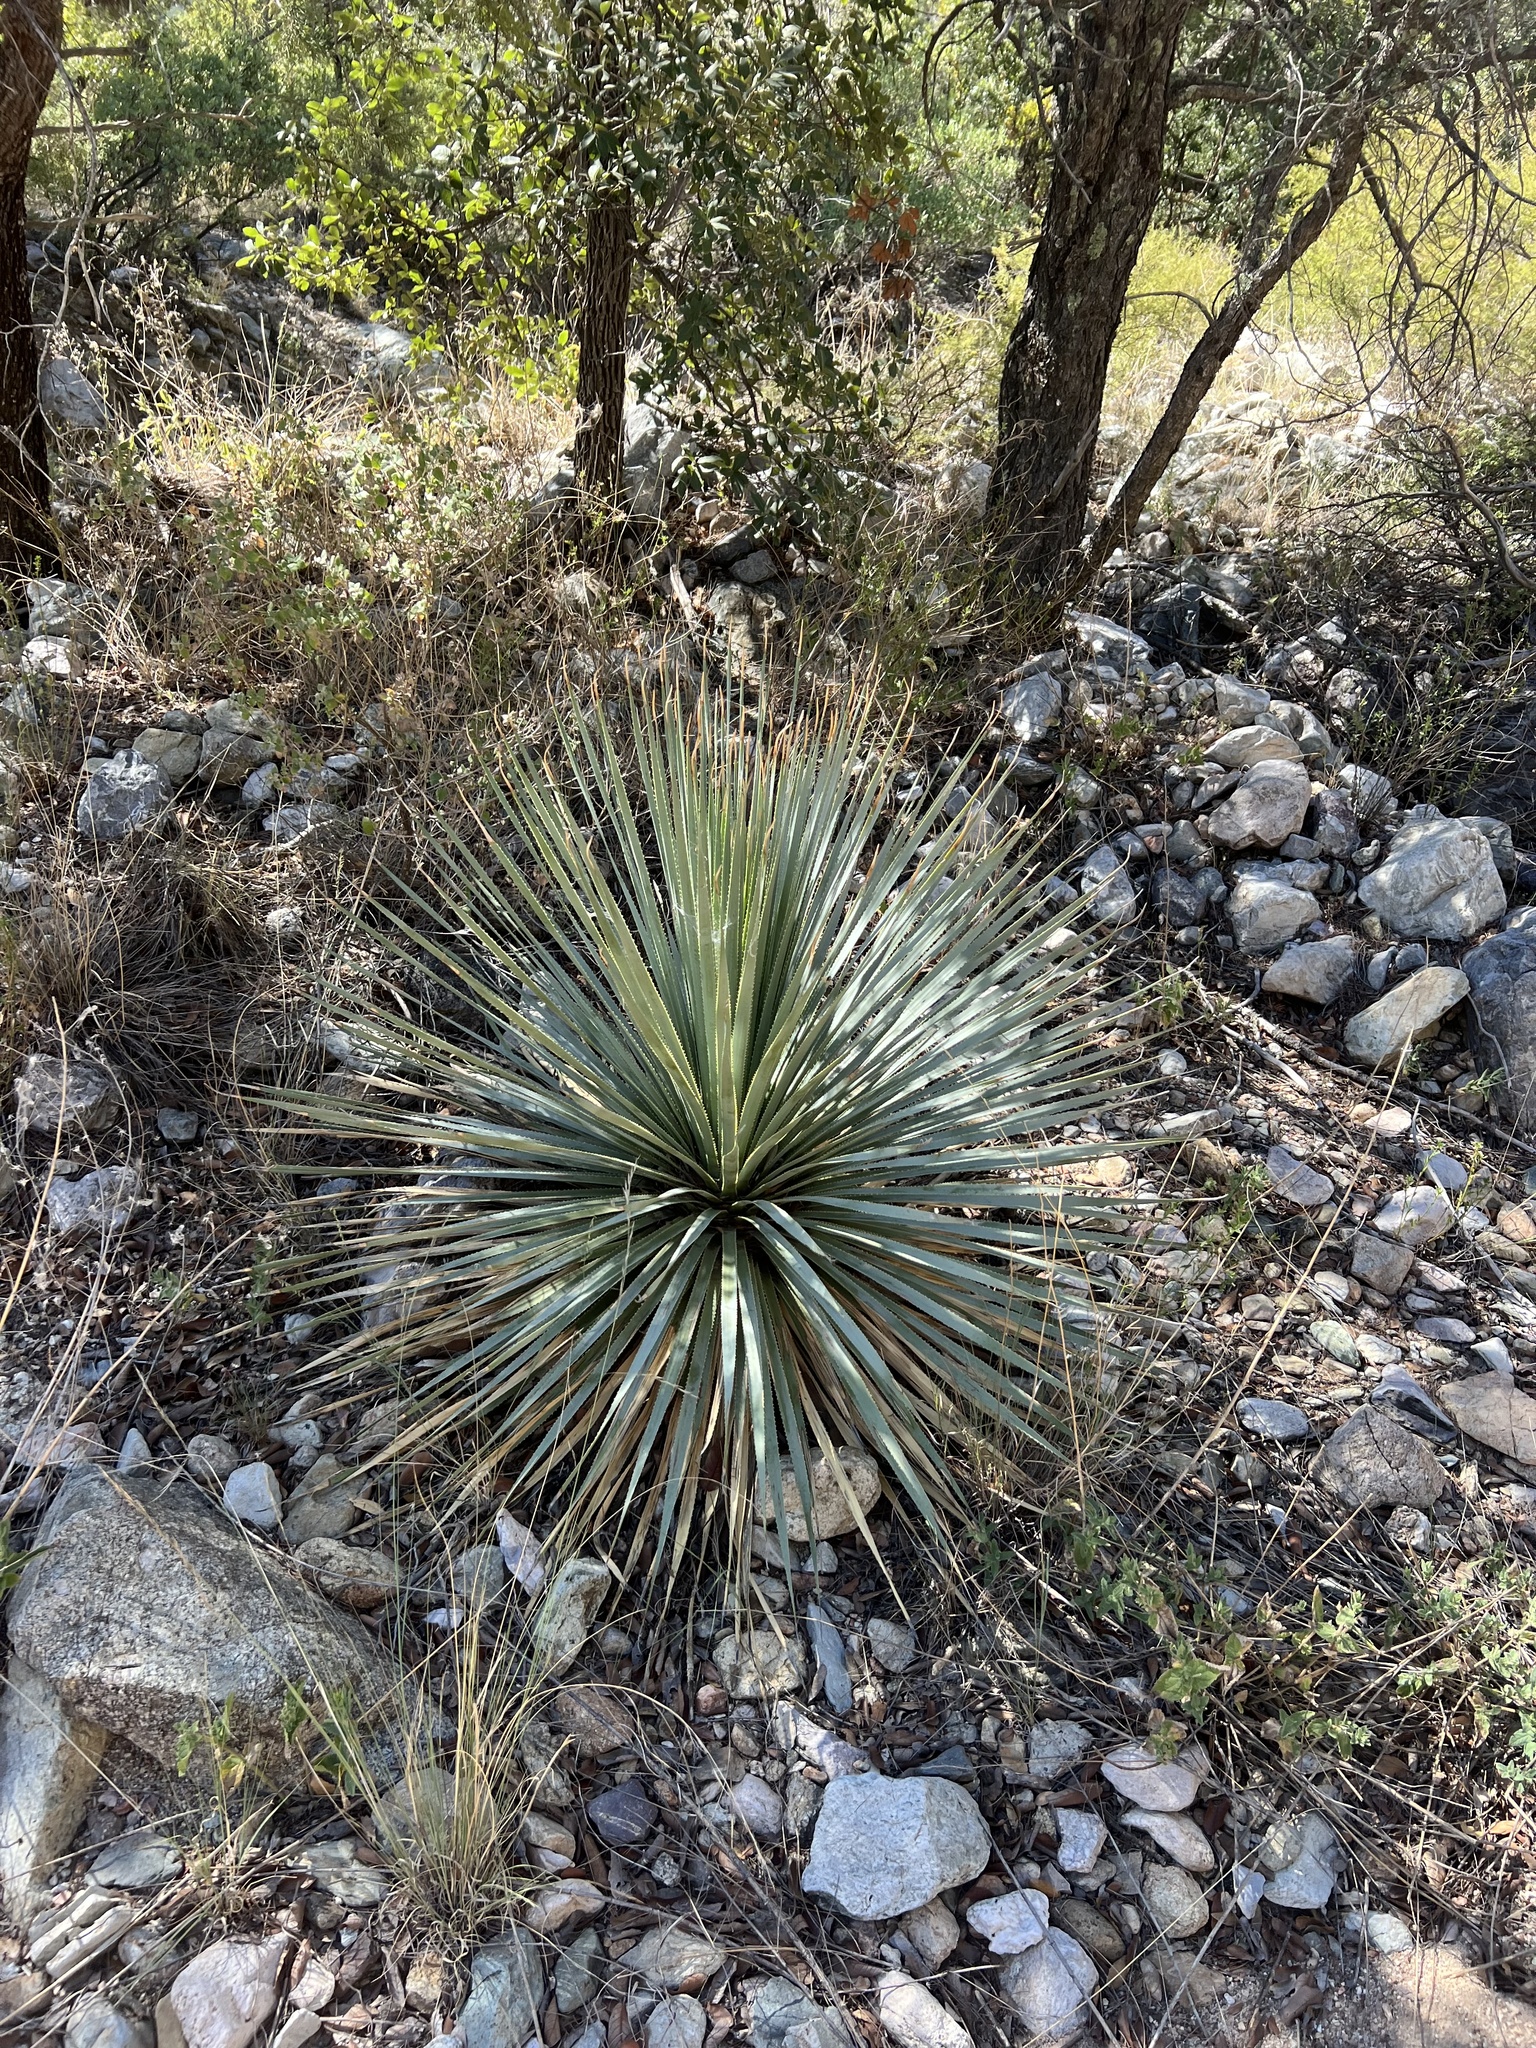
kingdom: Plantae
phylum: Tracheophyta
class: Liliopsida
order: Asparagales
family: Asparagaceae
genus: Dasylirion
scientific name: Dasylirion wheeleri
